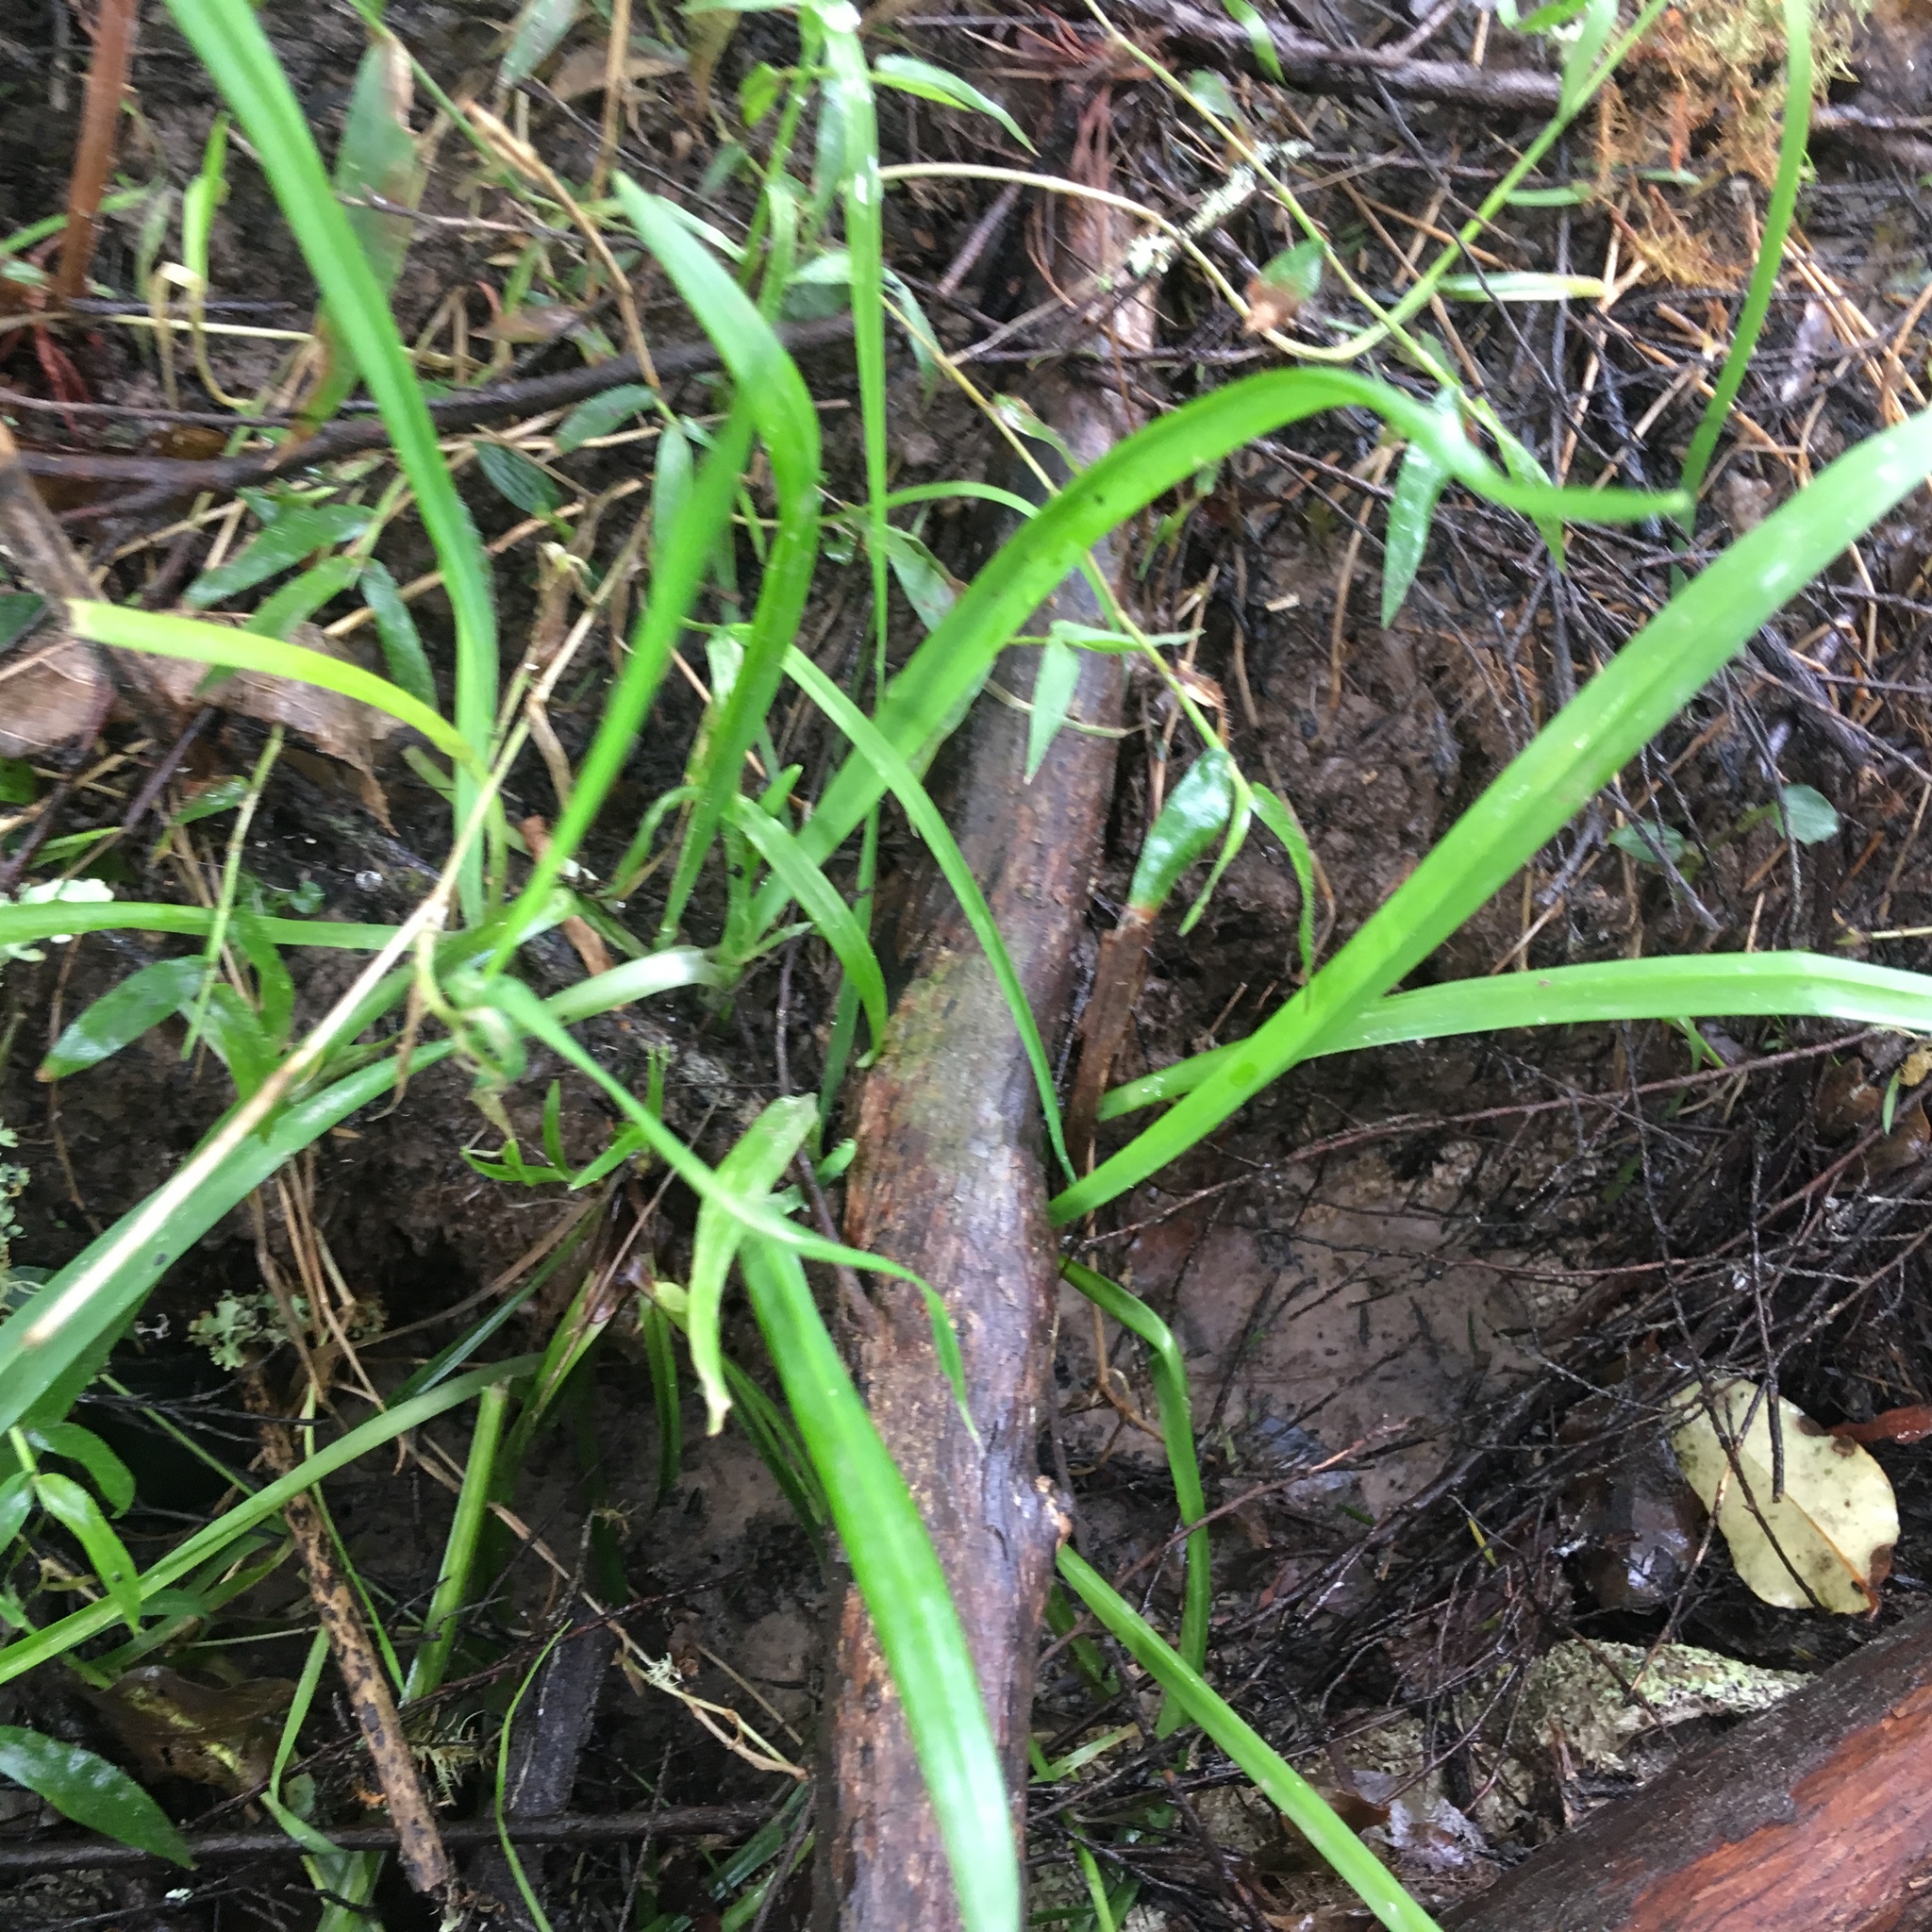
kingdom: Plantae
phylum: Tracheophyta
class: Liliopsida
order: Asparagales
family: Amaryllidaceae
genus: Allium
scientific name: Allium triquetrum
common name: Three-cornered garlic
